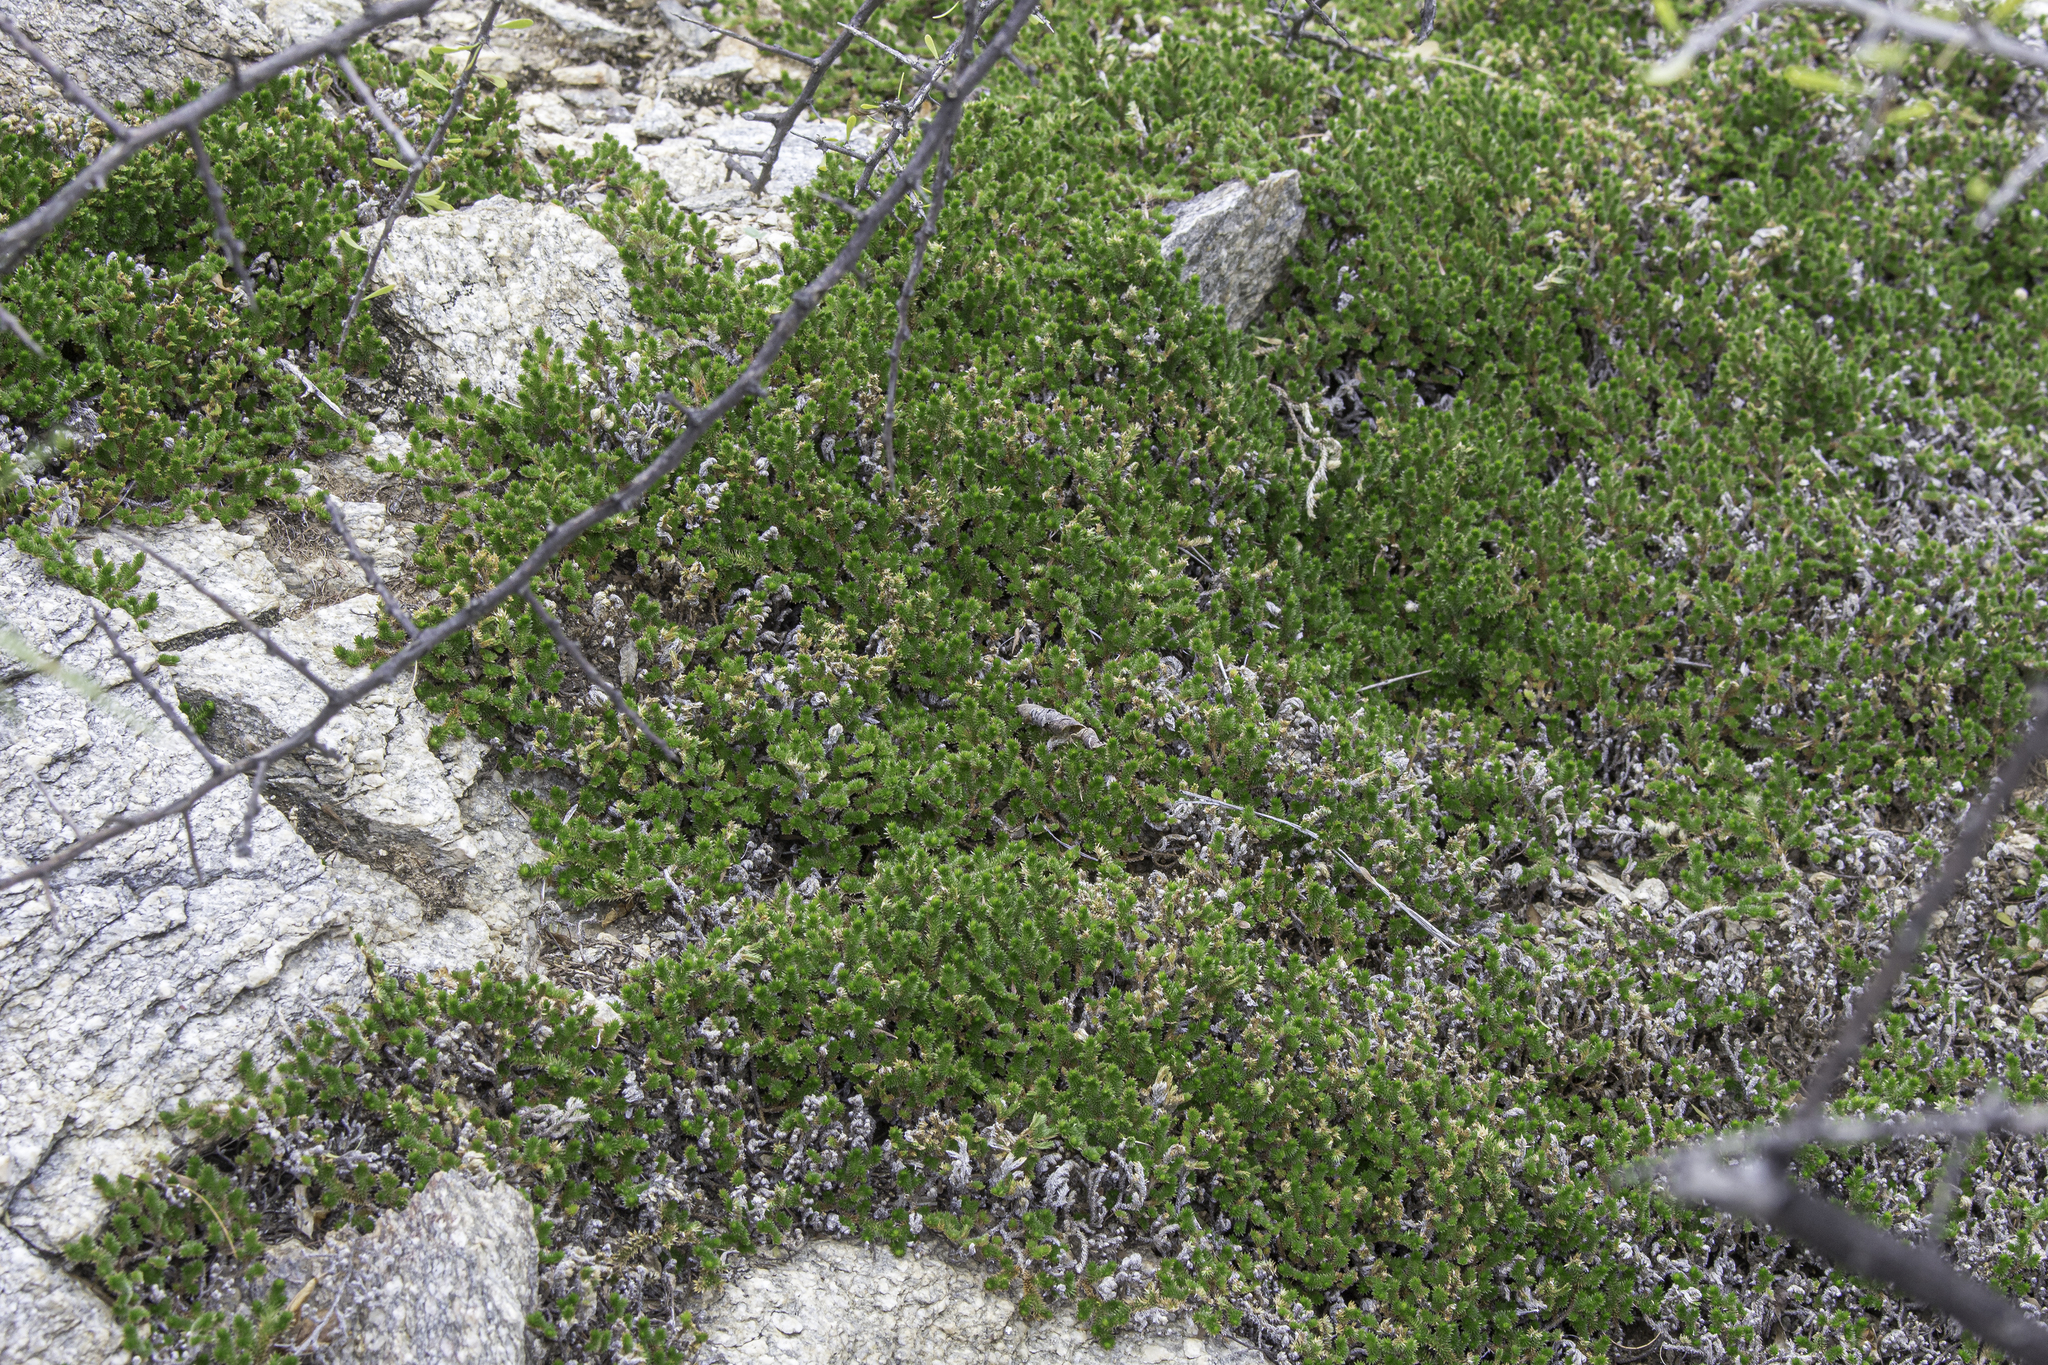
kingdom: Plantae
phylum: Tracheophyta
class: Lycopodiopsida
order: Selaginellales
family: Selaginellaceae
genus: Selaginella
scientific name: Selaginella arizonica
